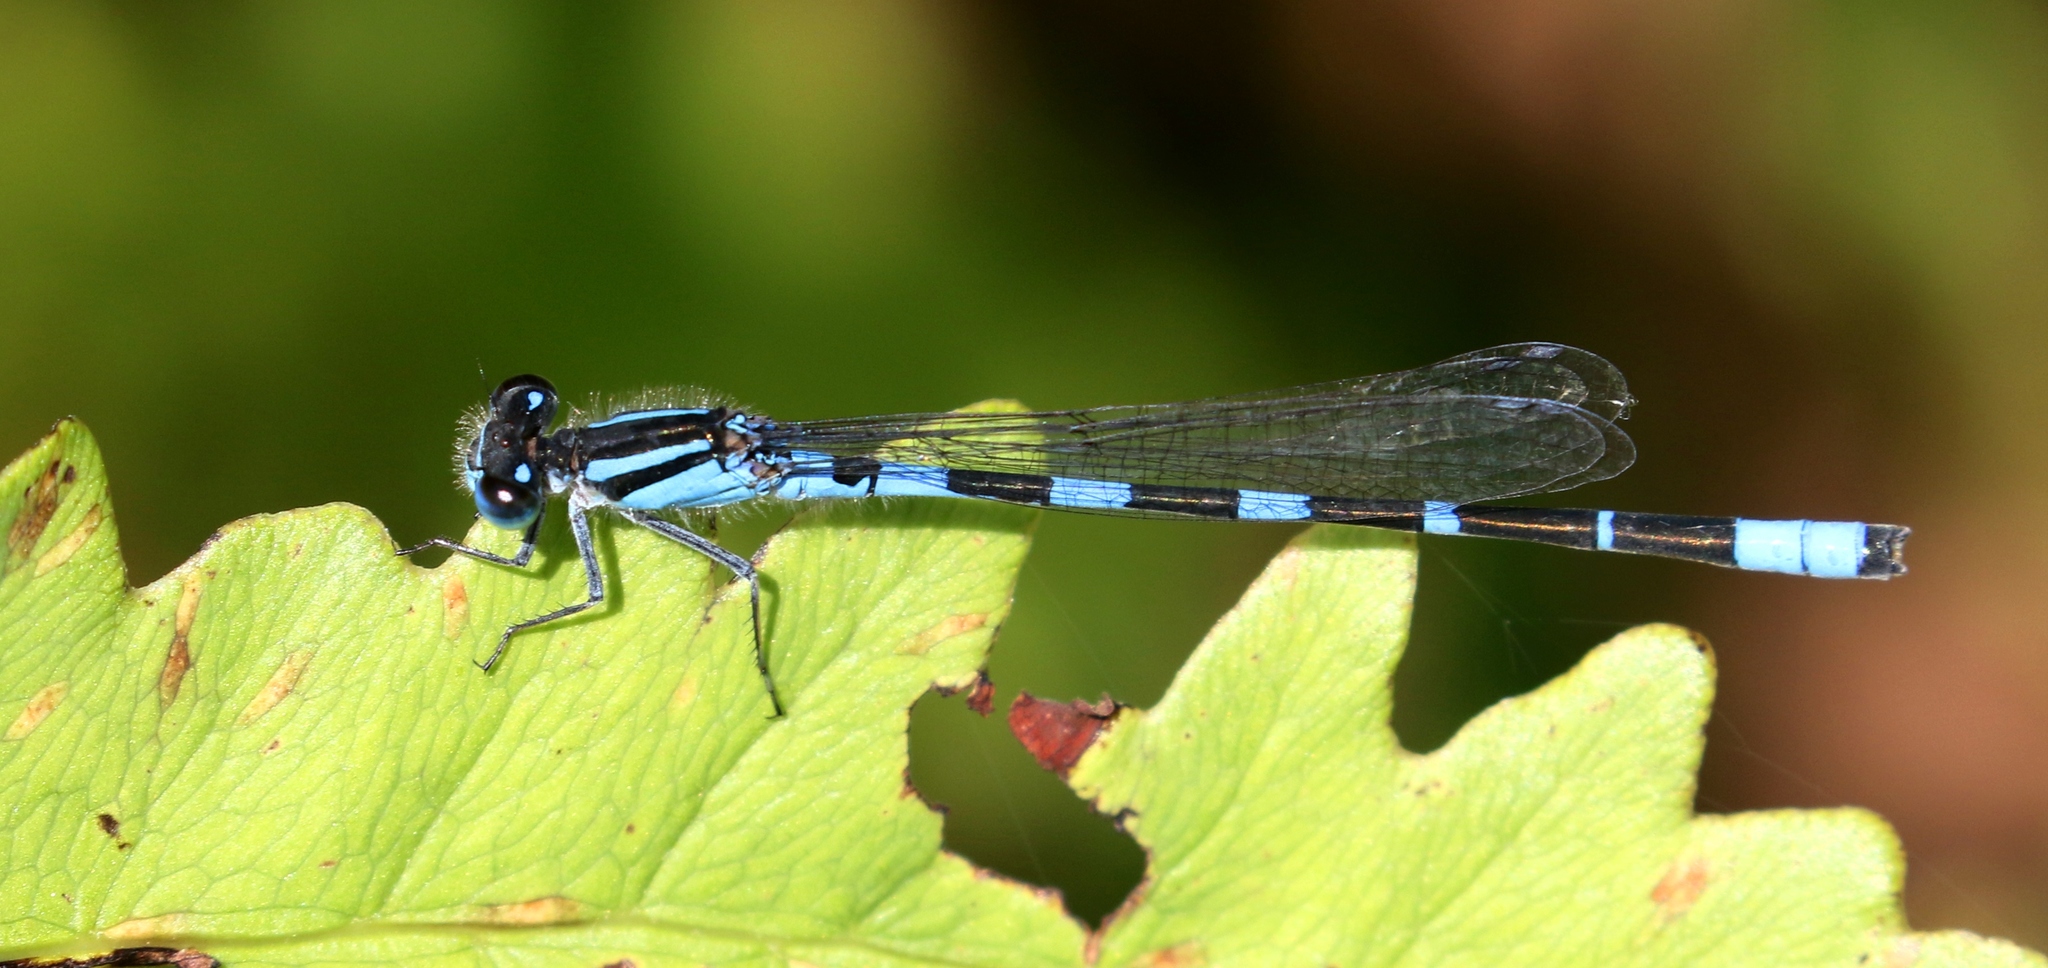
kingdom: Animalia
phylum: Arthropoda
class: Insecta
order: Odonata
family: Coenagrionidae
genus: Enallagma
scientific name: Enallagma carunculatum
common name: Tule bluet
